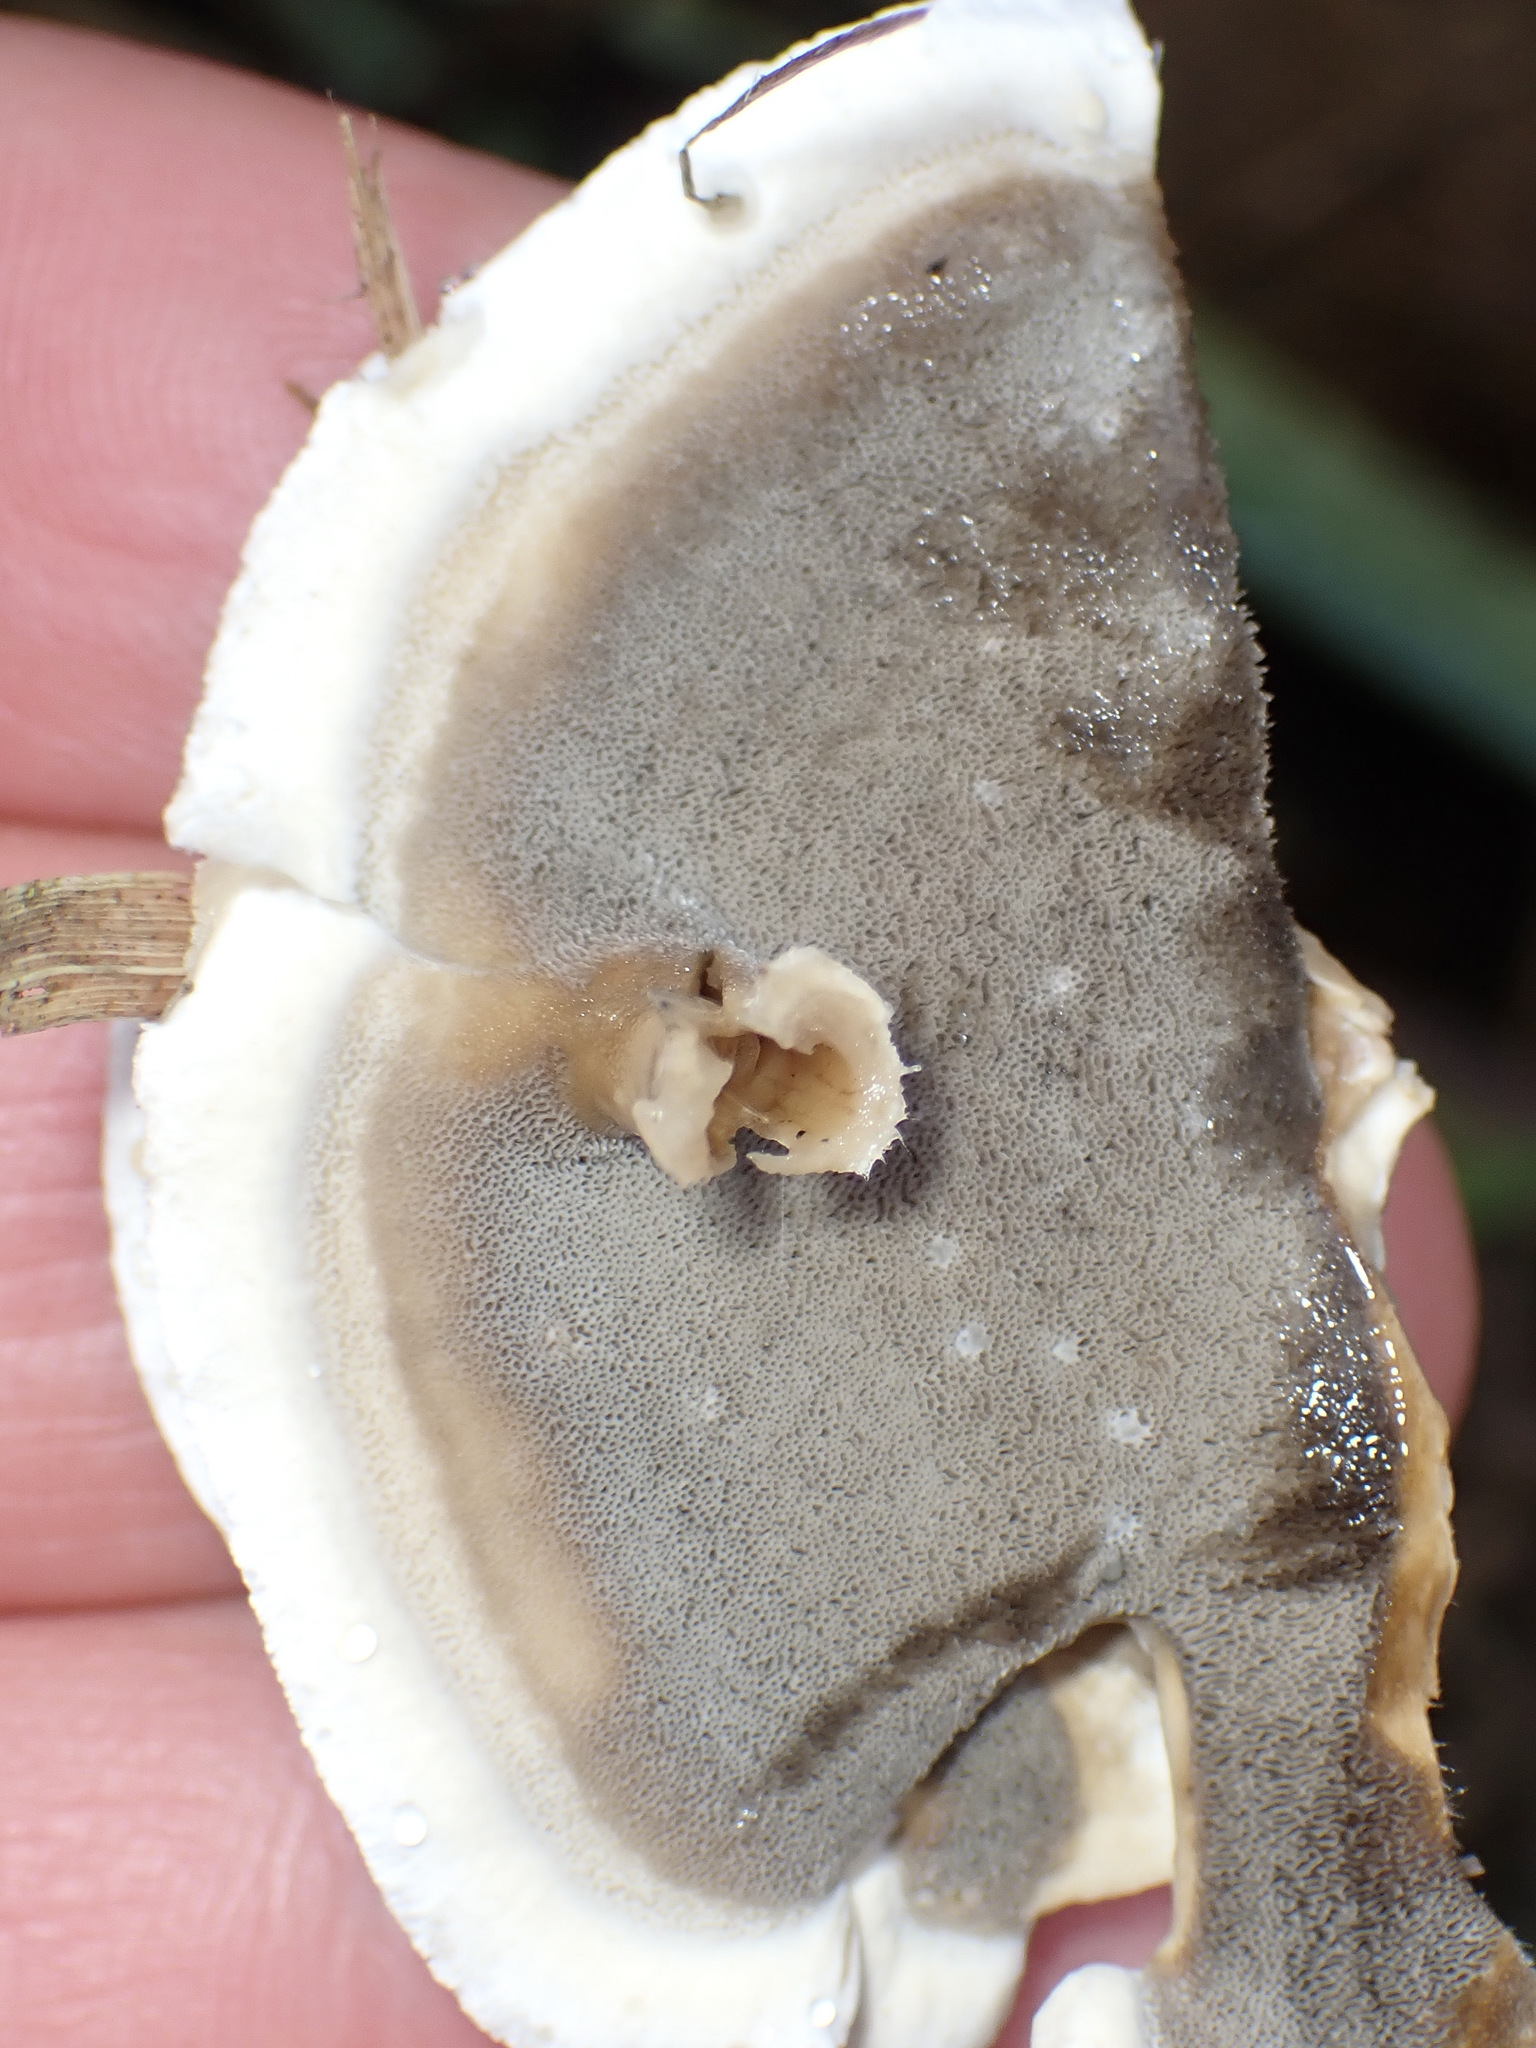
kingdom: Fungi
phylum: Basidiomycota
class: Agaricomycetes
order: Polyporales
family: Phanerochaetaceae
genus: Bjerkandera
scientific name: Bjerkandera adusta
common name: Smoky bracket
